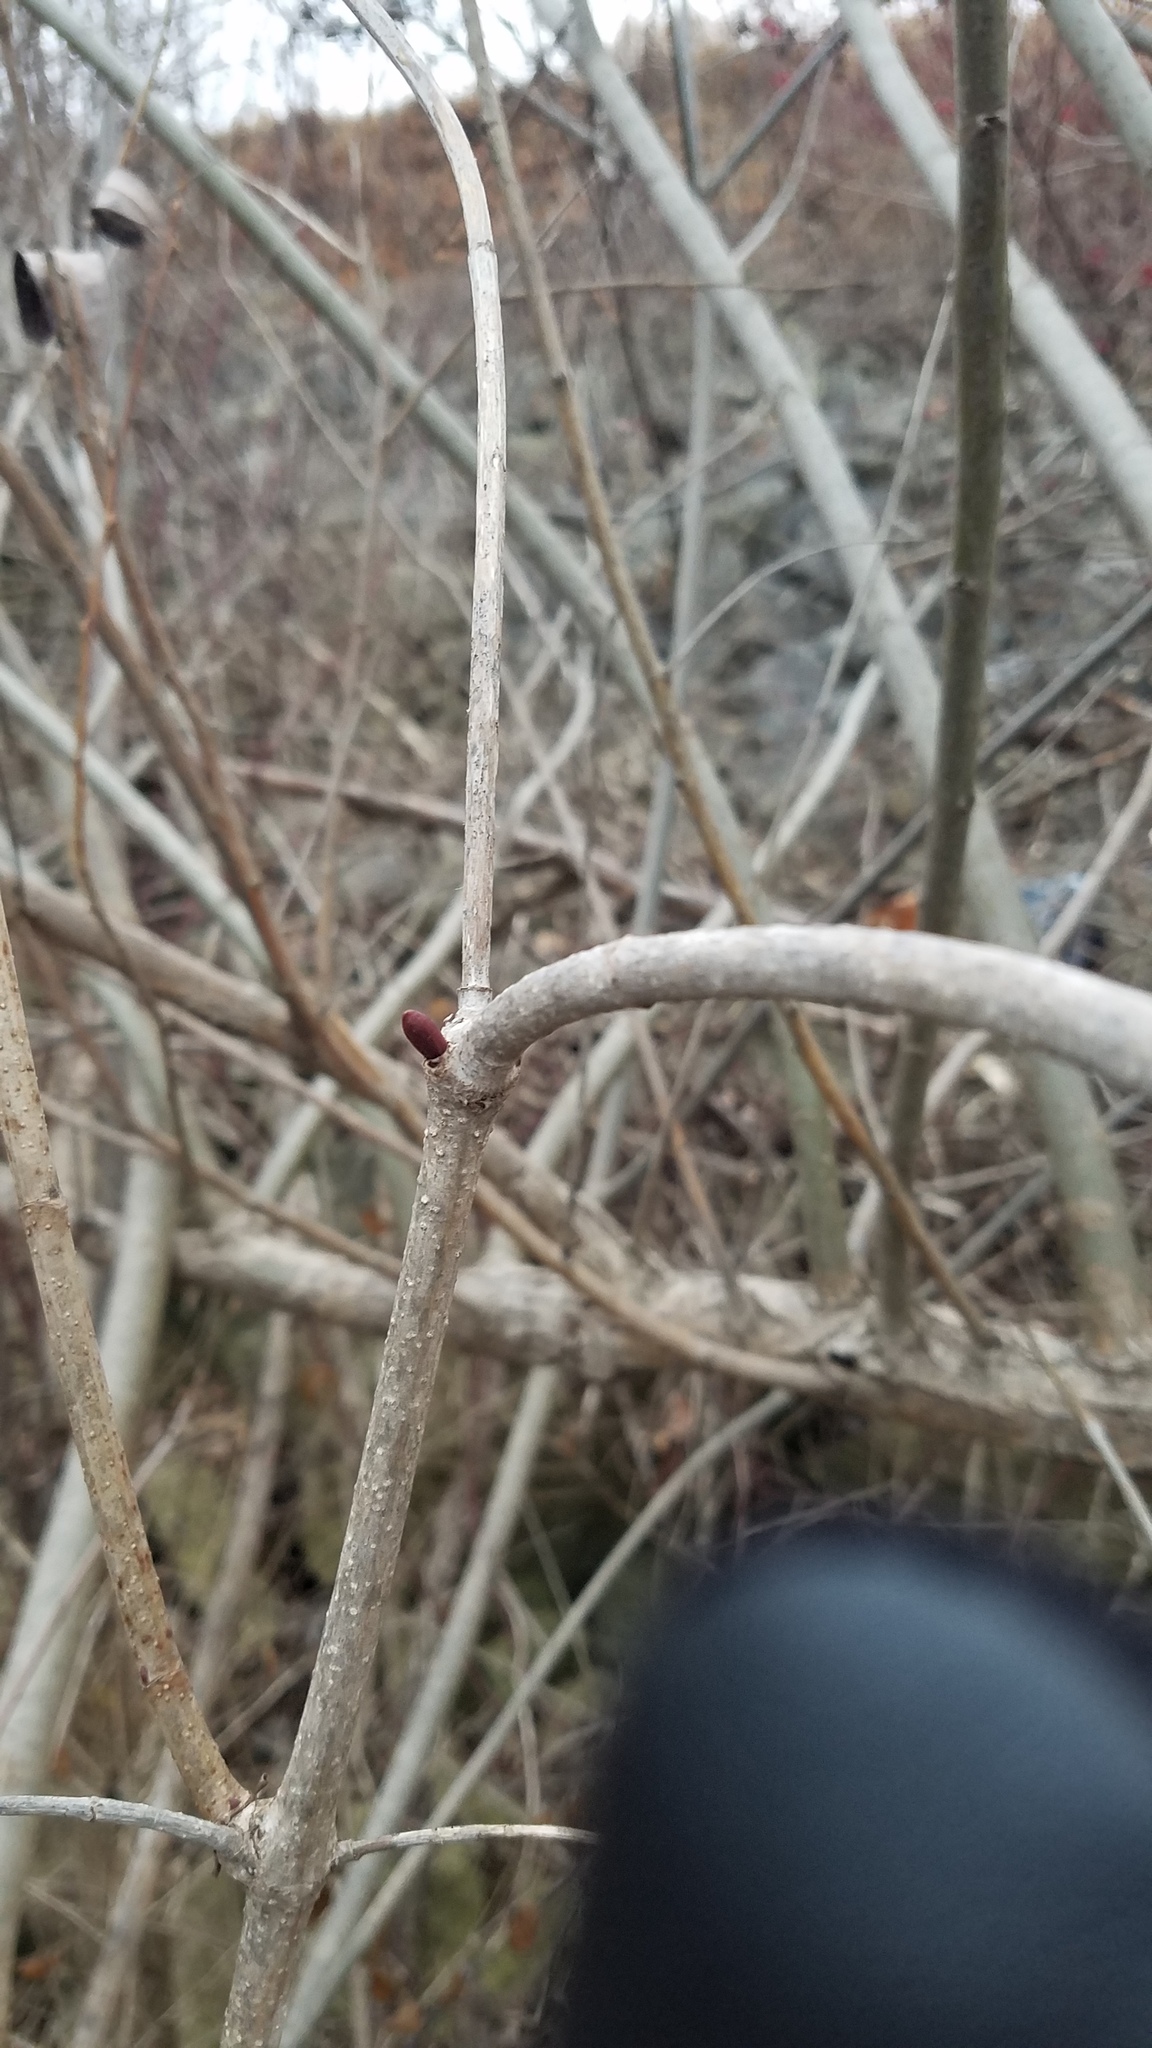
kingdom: Plantae
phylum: Tracheophyta
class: Magnoliopsida
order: Dipsacales
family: Viburnaceae
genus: Viburnum
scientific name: Viburnum opulus
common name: Guelder-rose
